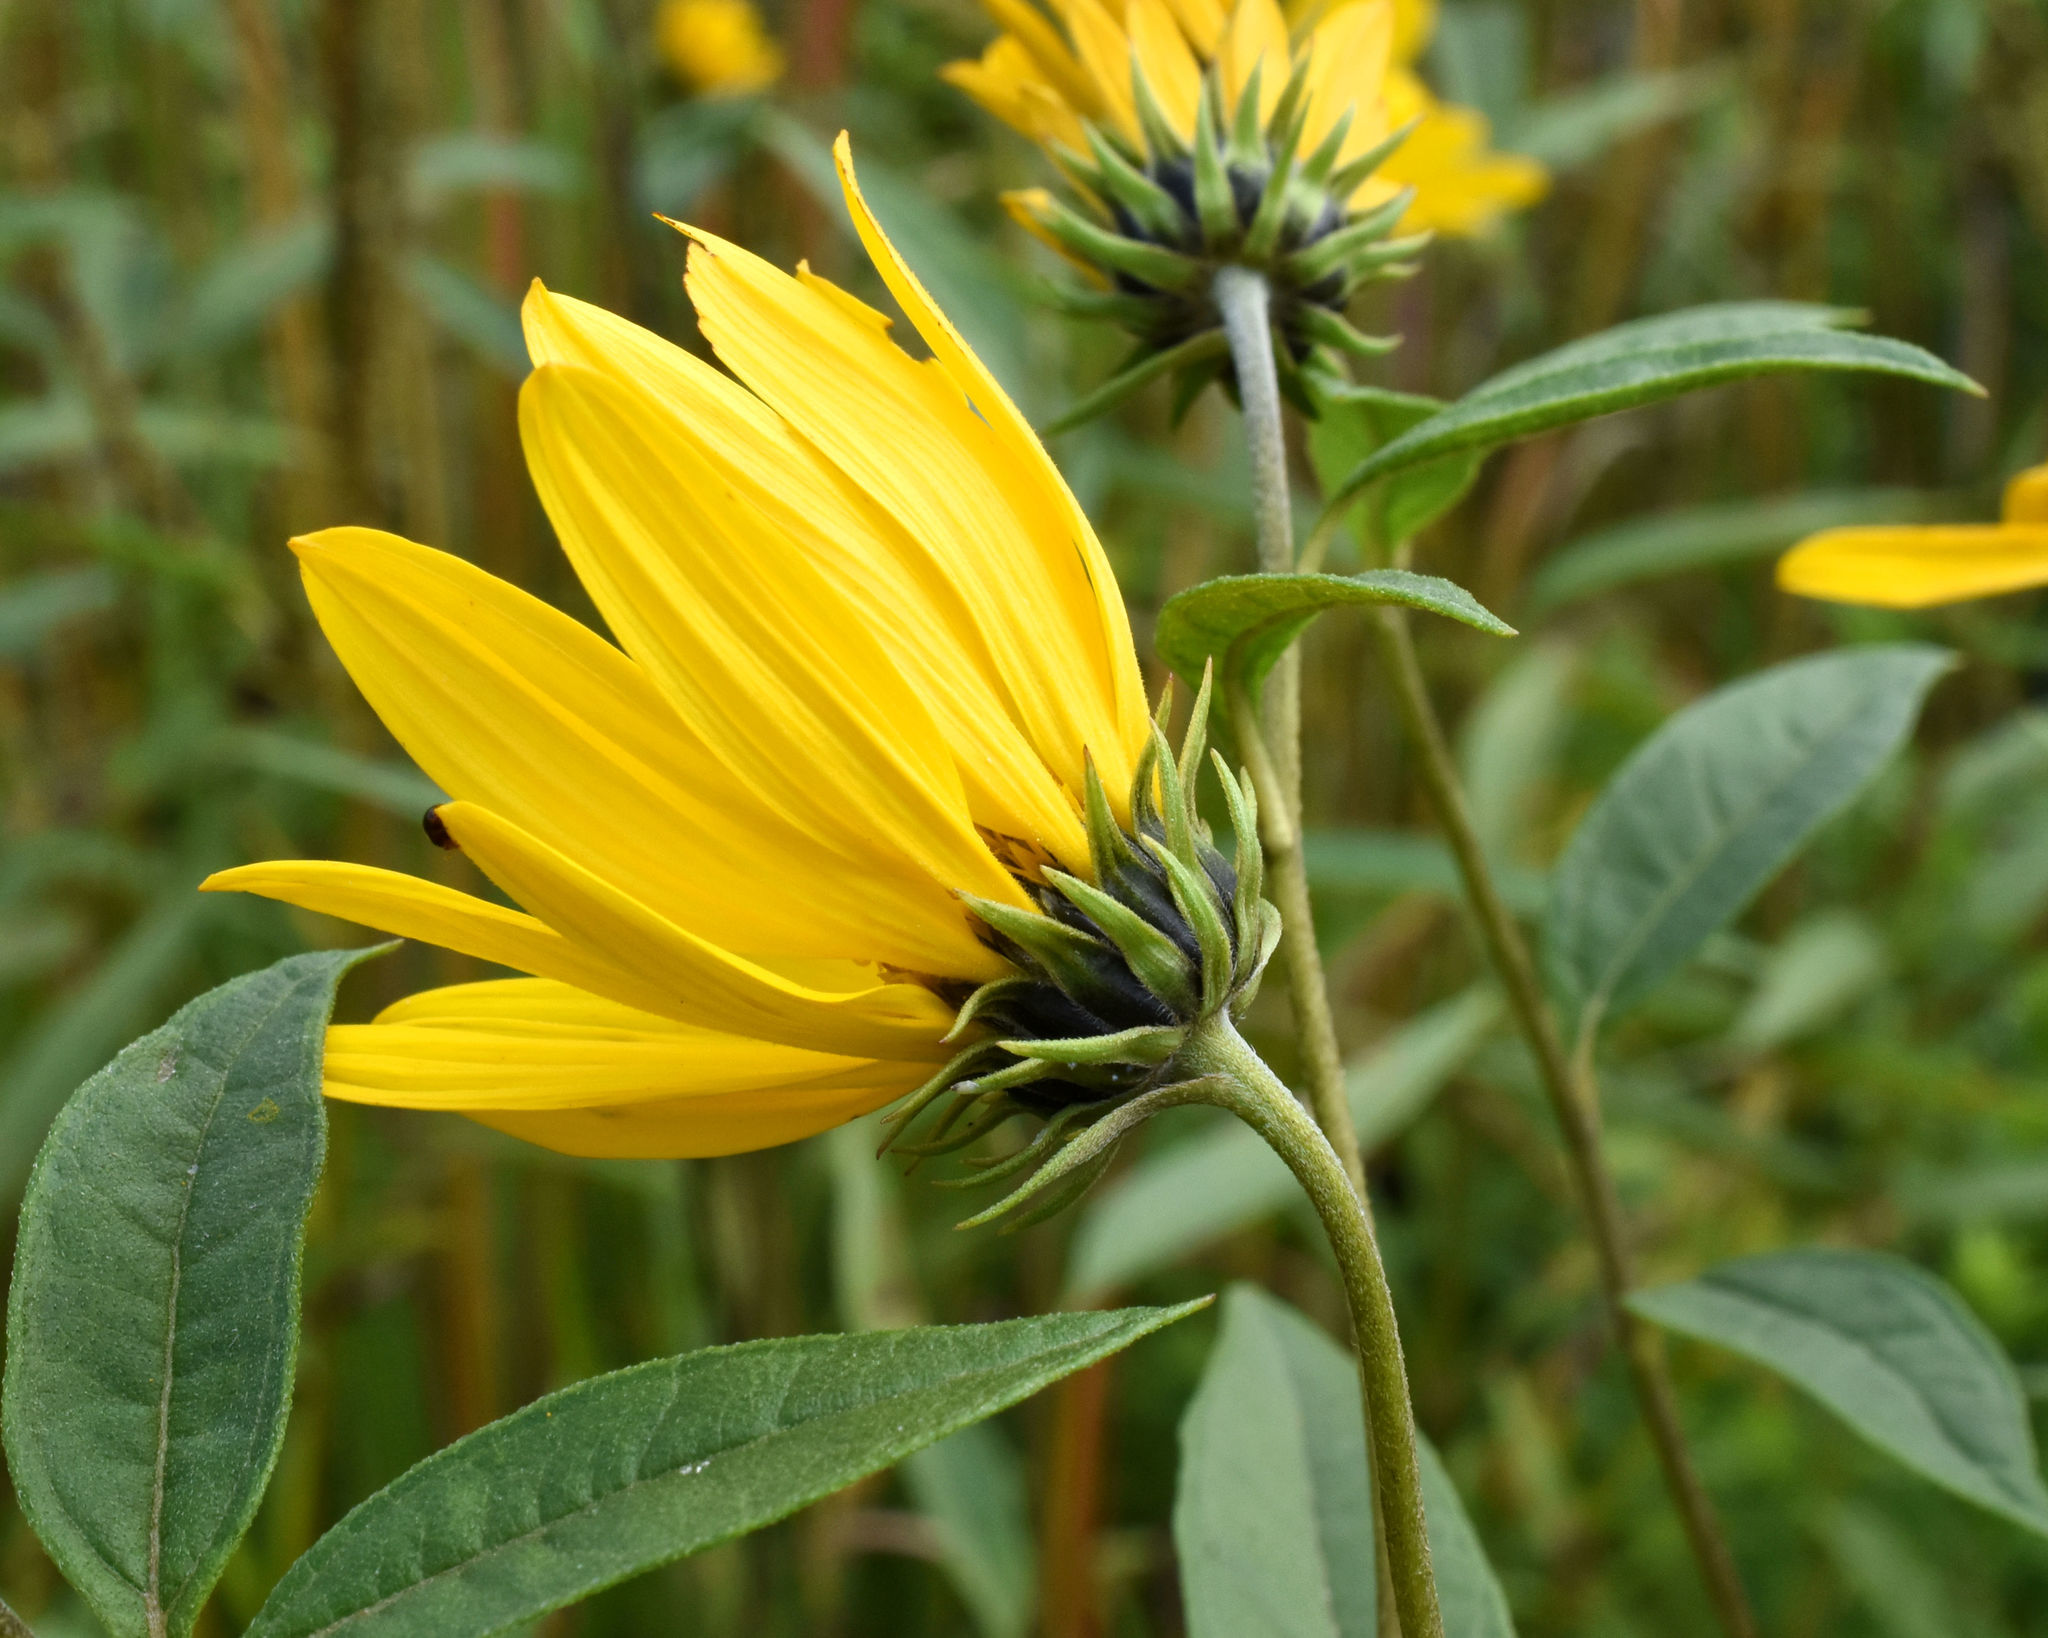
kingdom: Plantae
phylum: Tracheophyta
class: Magnoliopsida
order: Asterales
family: Asteraceae
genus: Helianthus
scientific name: Helianthus grosseserratus
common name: Sawtooth sunflower
